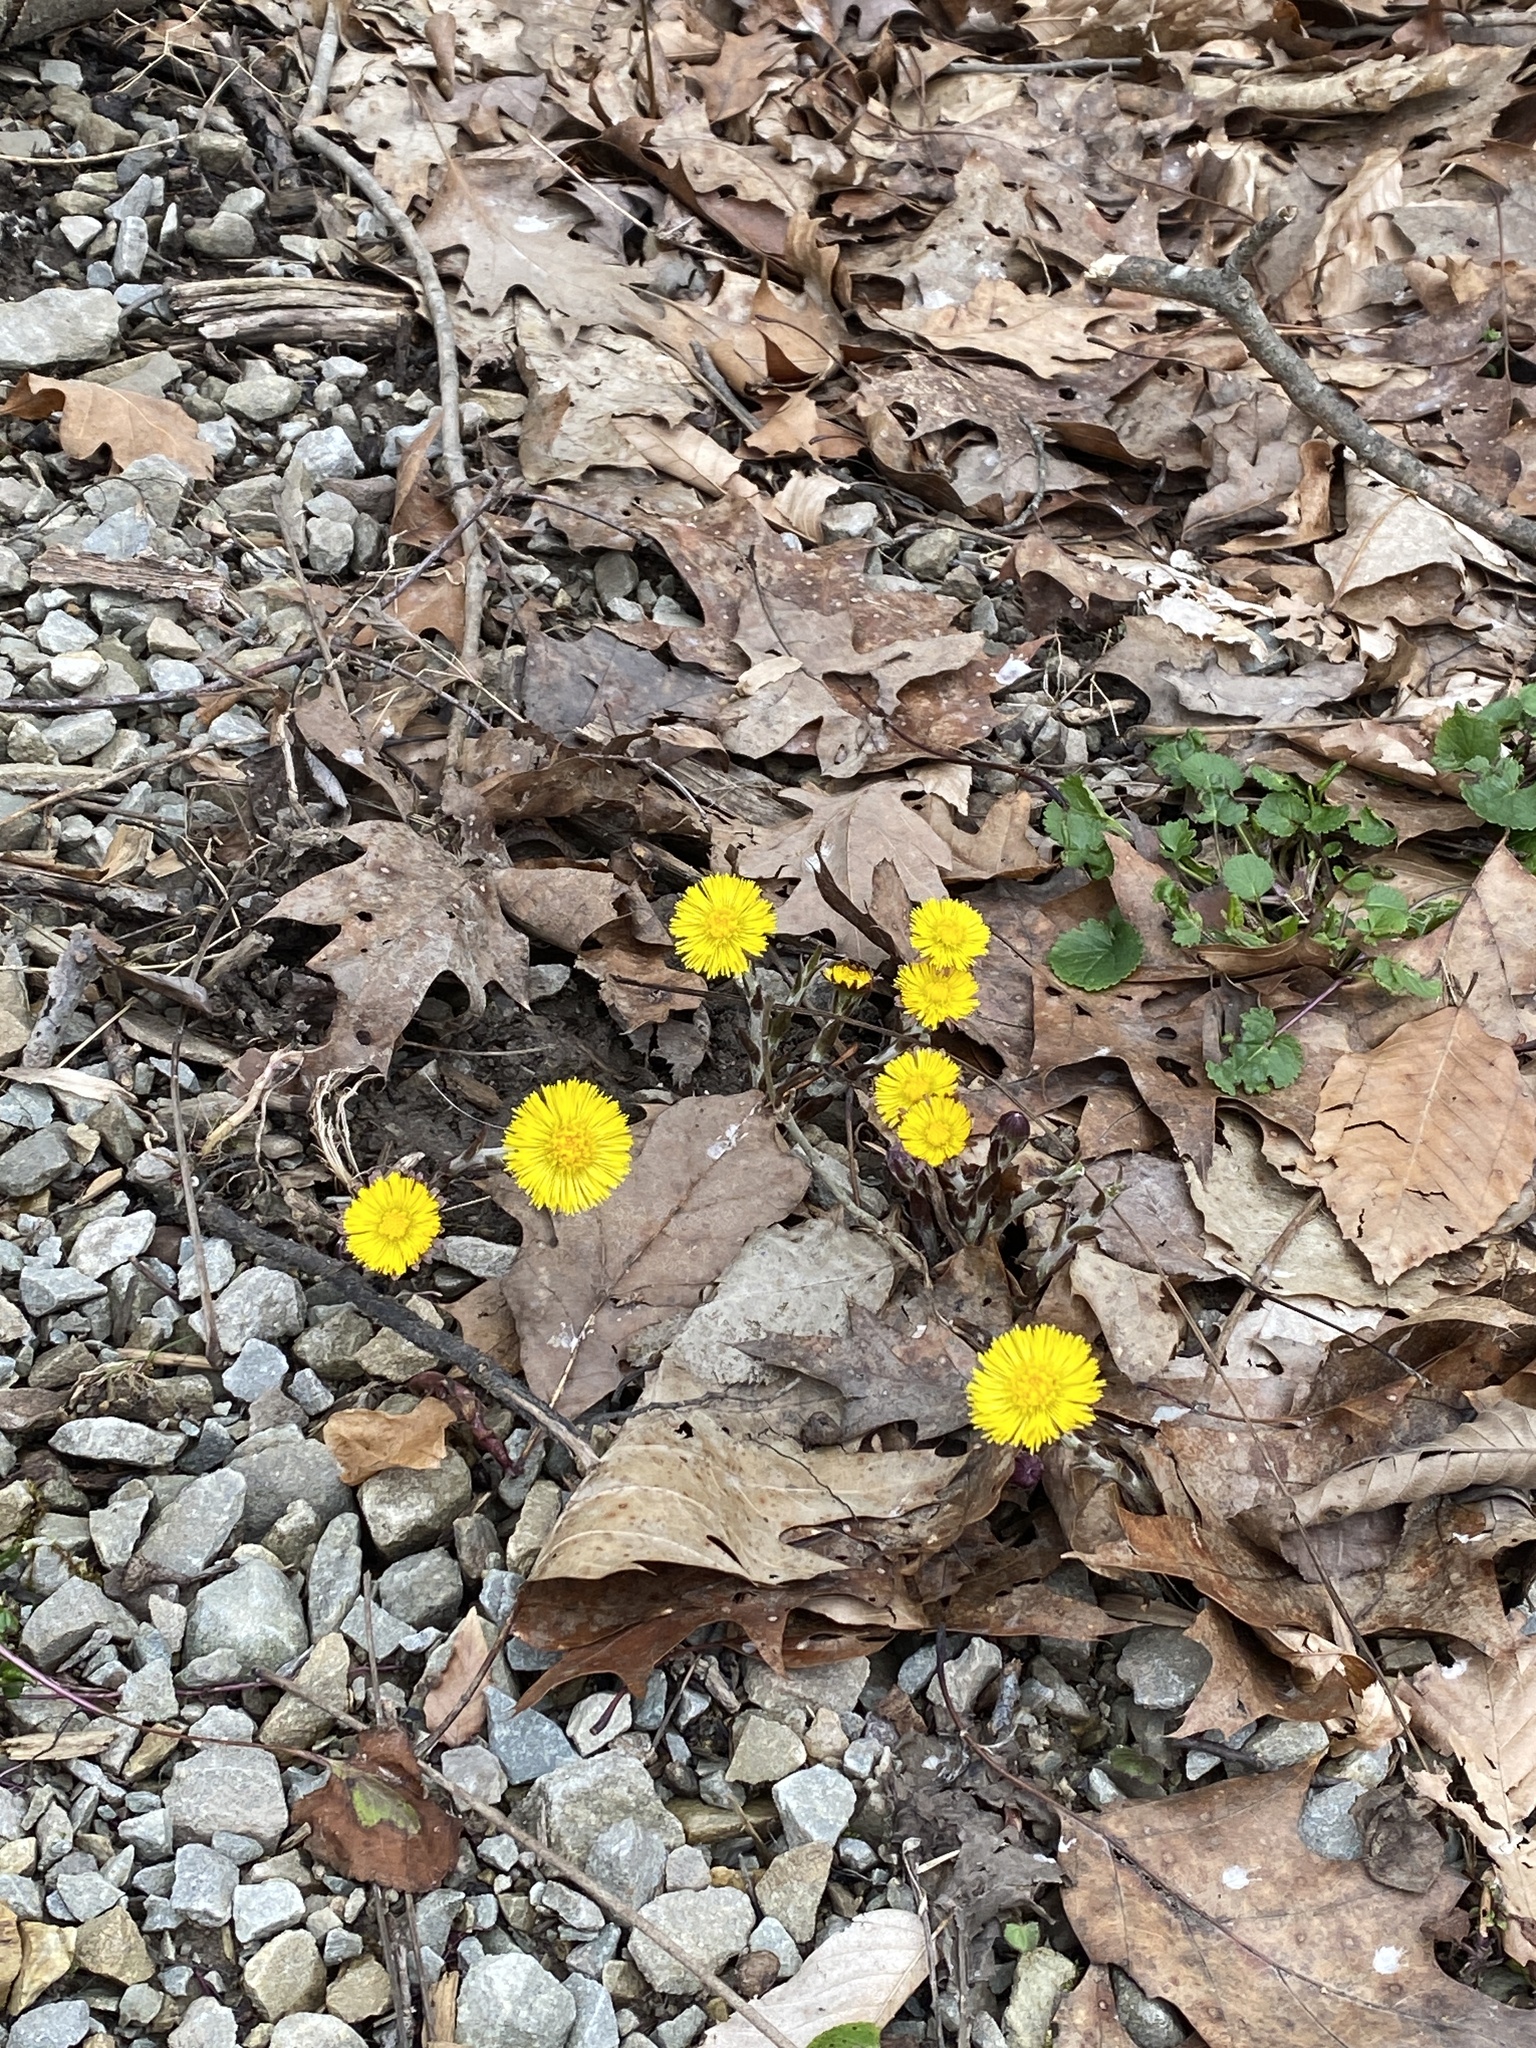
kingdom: Plantae
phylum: Tracheophyta
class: Magnoliopsida
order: Asterales
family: Asteraceae
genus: Tussilago
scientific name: Tussilago farfara
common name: Coltsfoot
